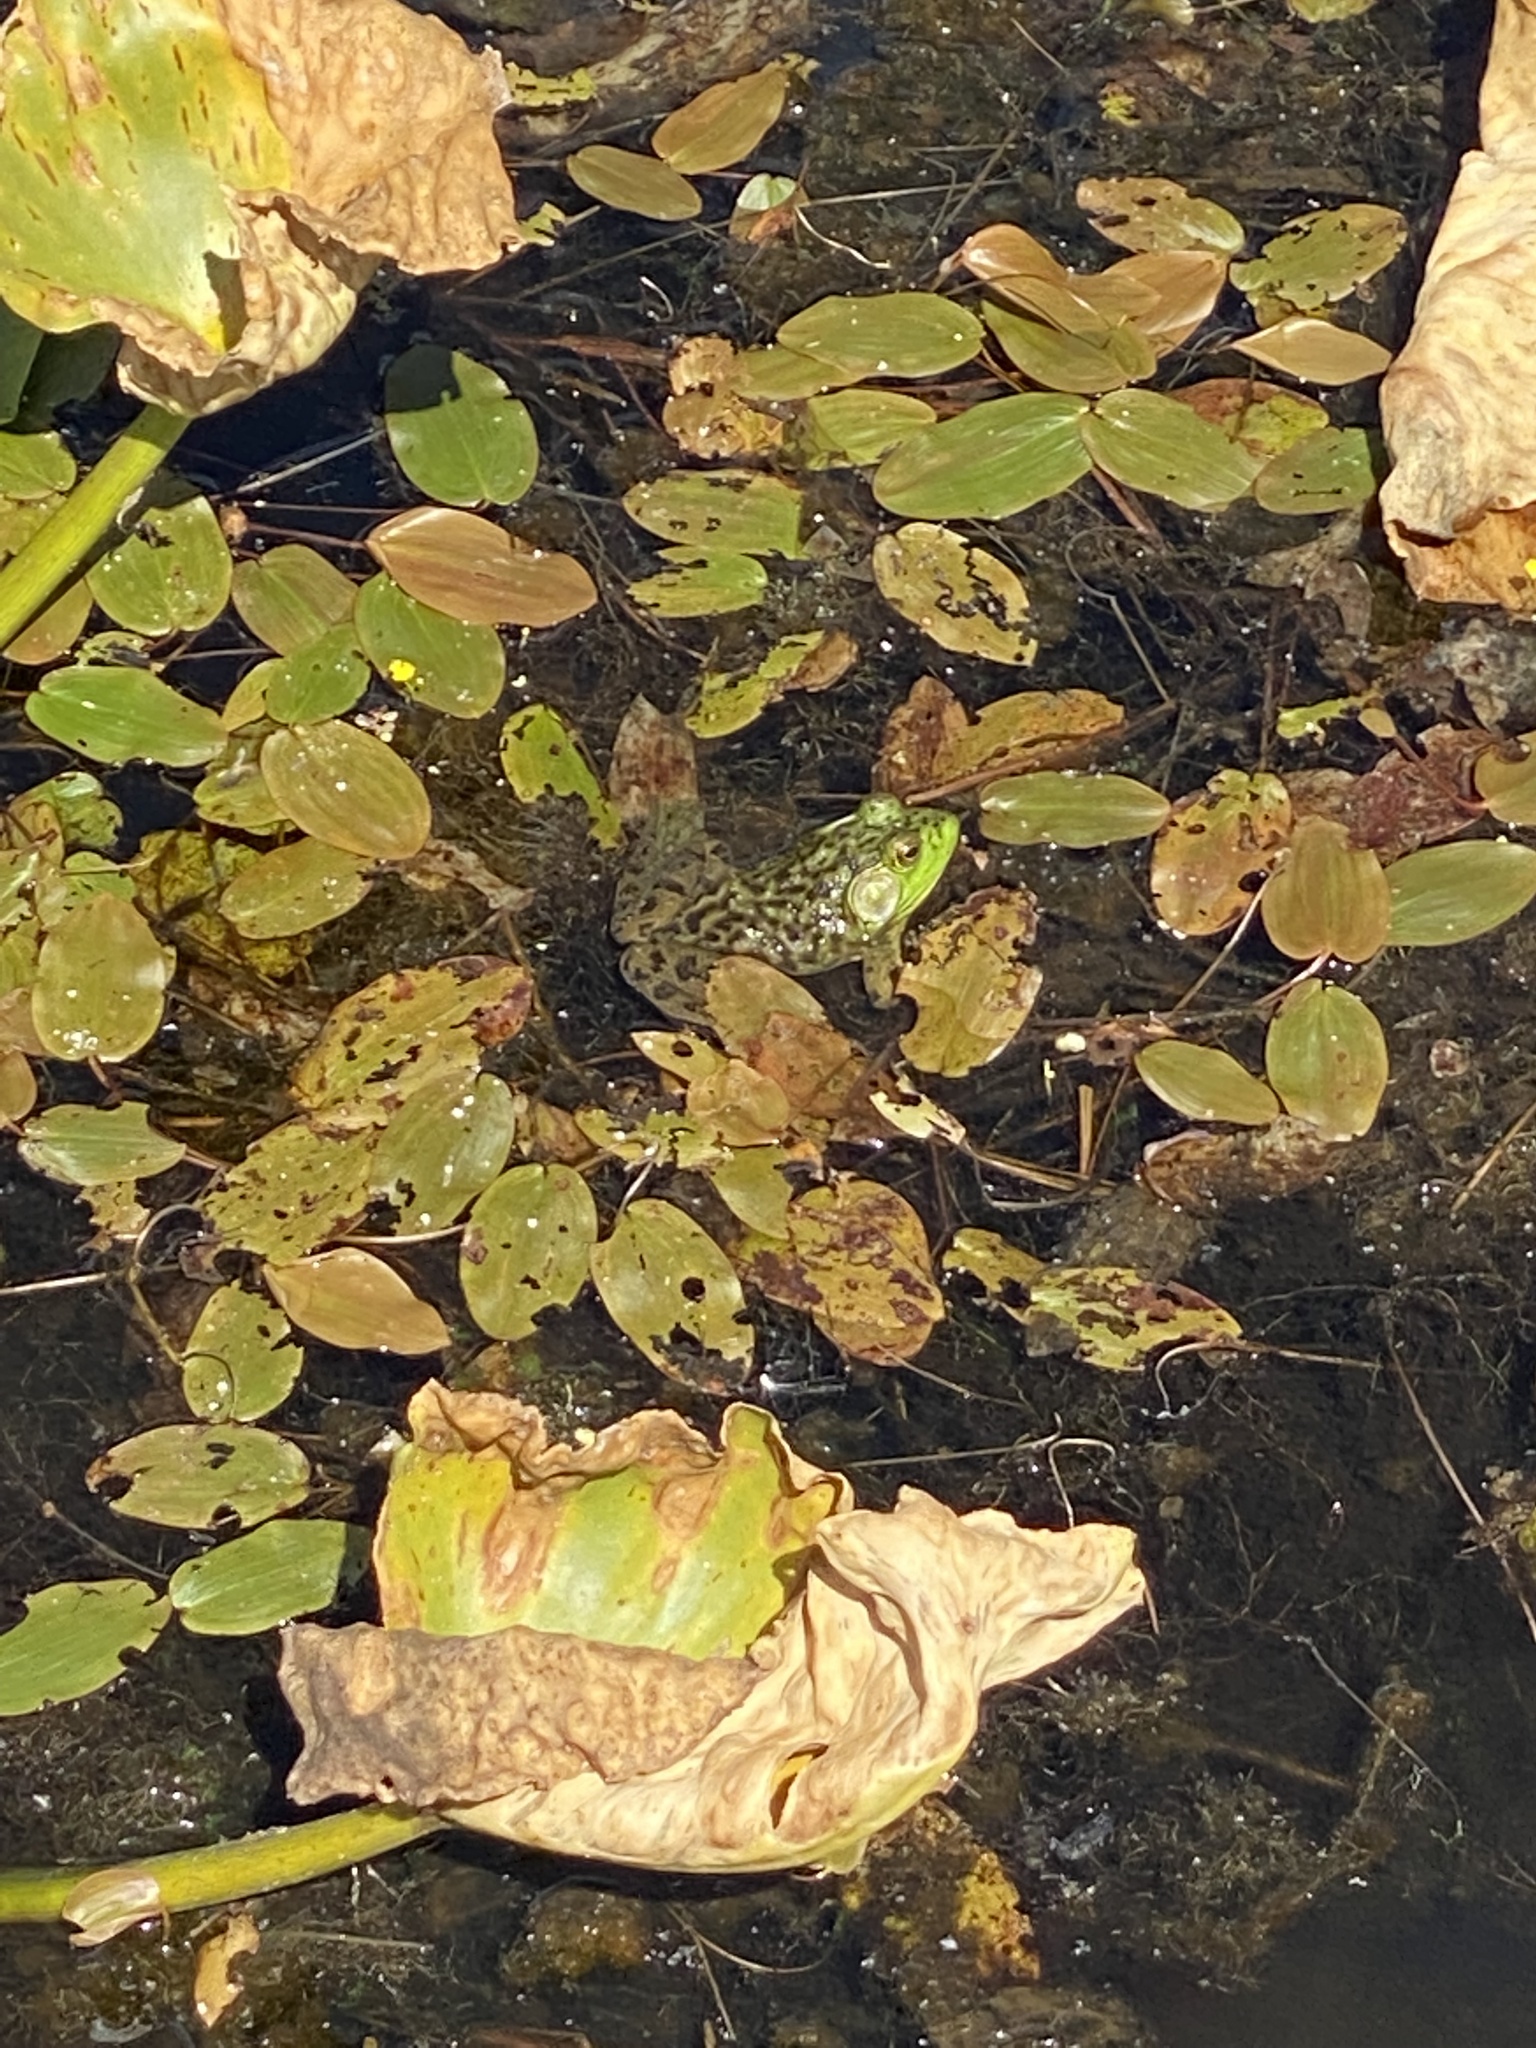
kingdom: Animalia
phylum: Chordata
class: Amphibia
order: Anura
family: Ranidae
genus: Lithobates
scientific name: Lithobates catesbeianus
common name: American bullfrog
